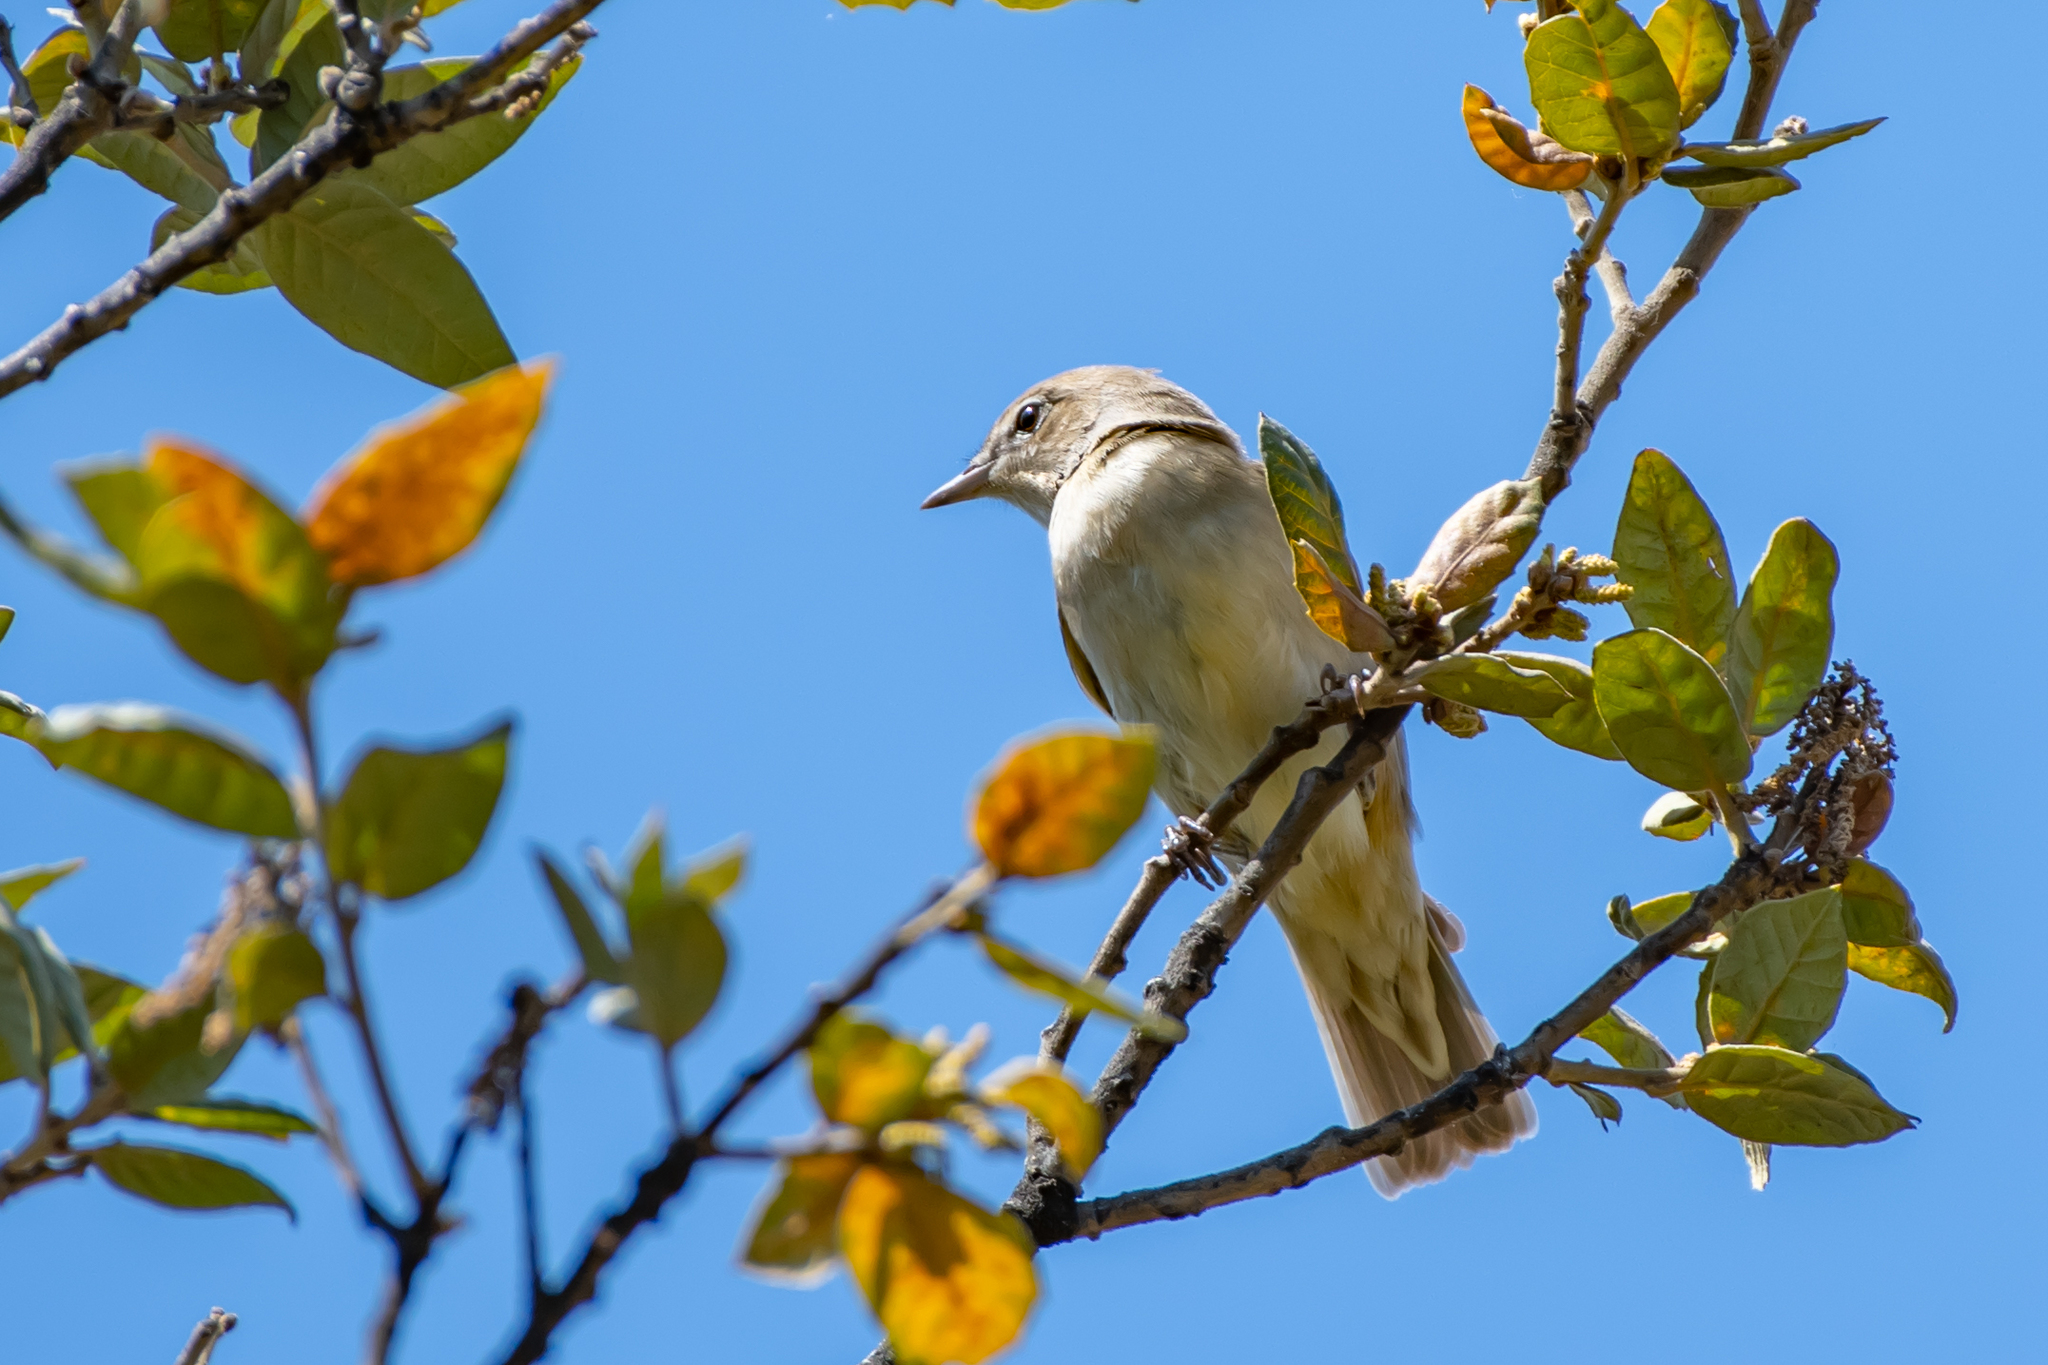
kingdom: Animalia
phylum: Chordata
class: Aves
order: Passeriformes
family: Sylviidae
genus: Sylvia
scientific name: Sylvia borin
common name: Garden warbler
